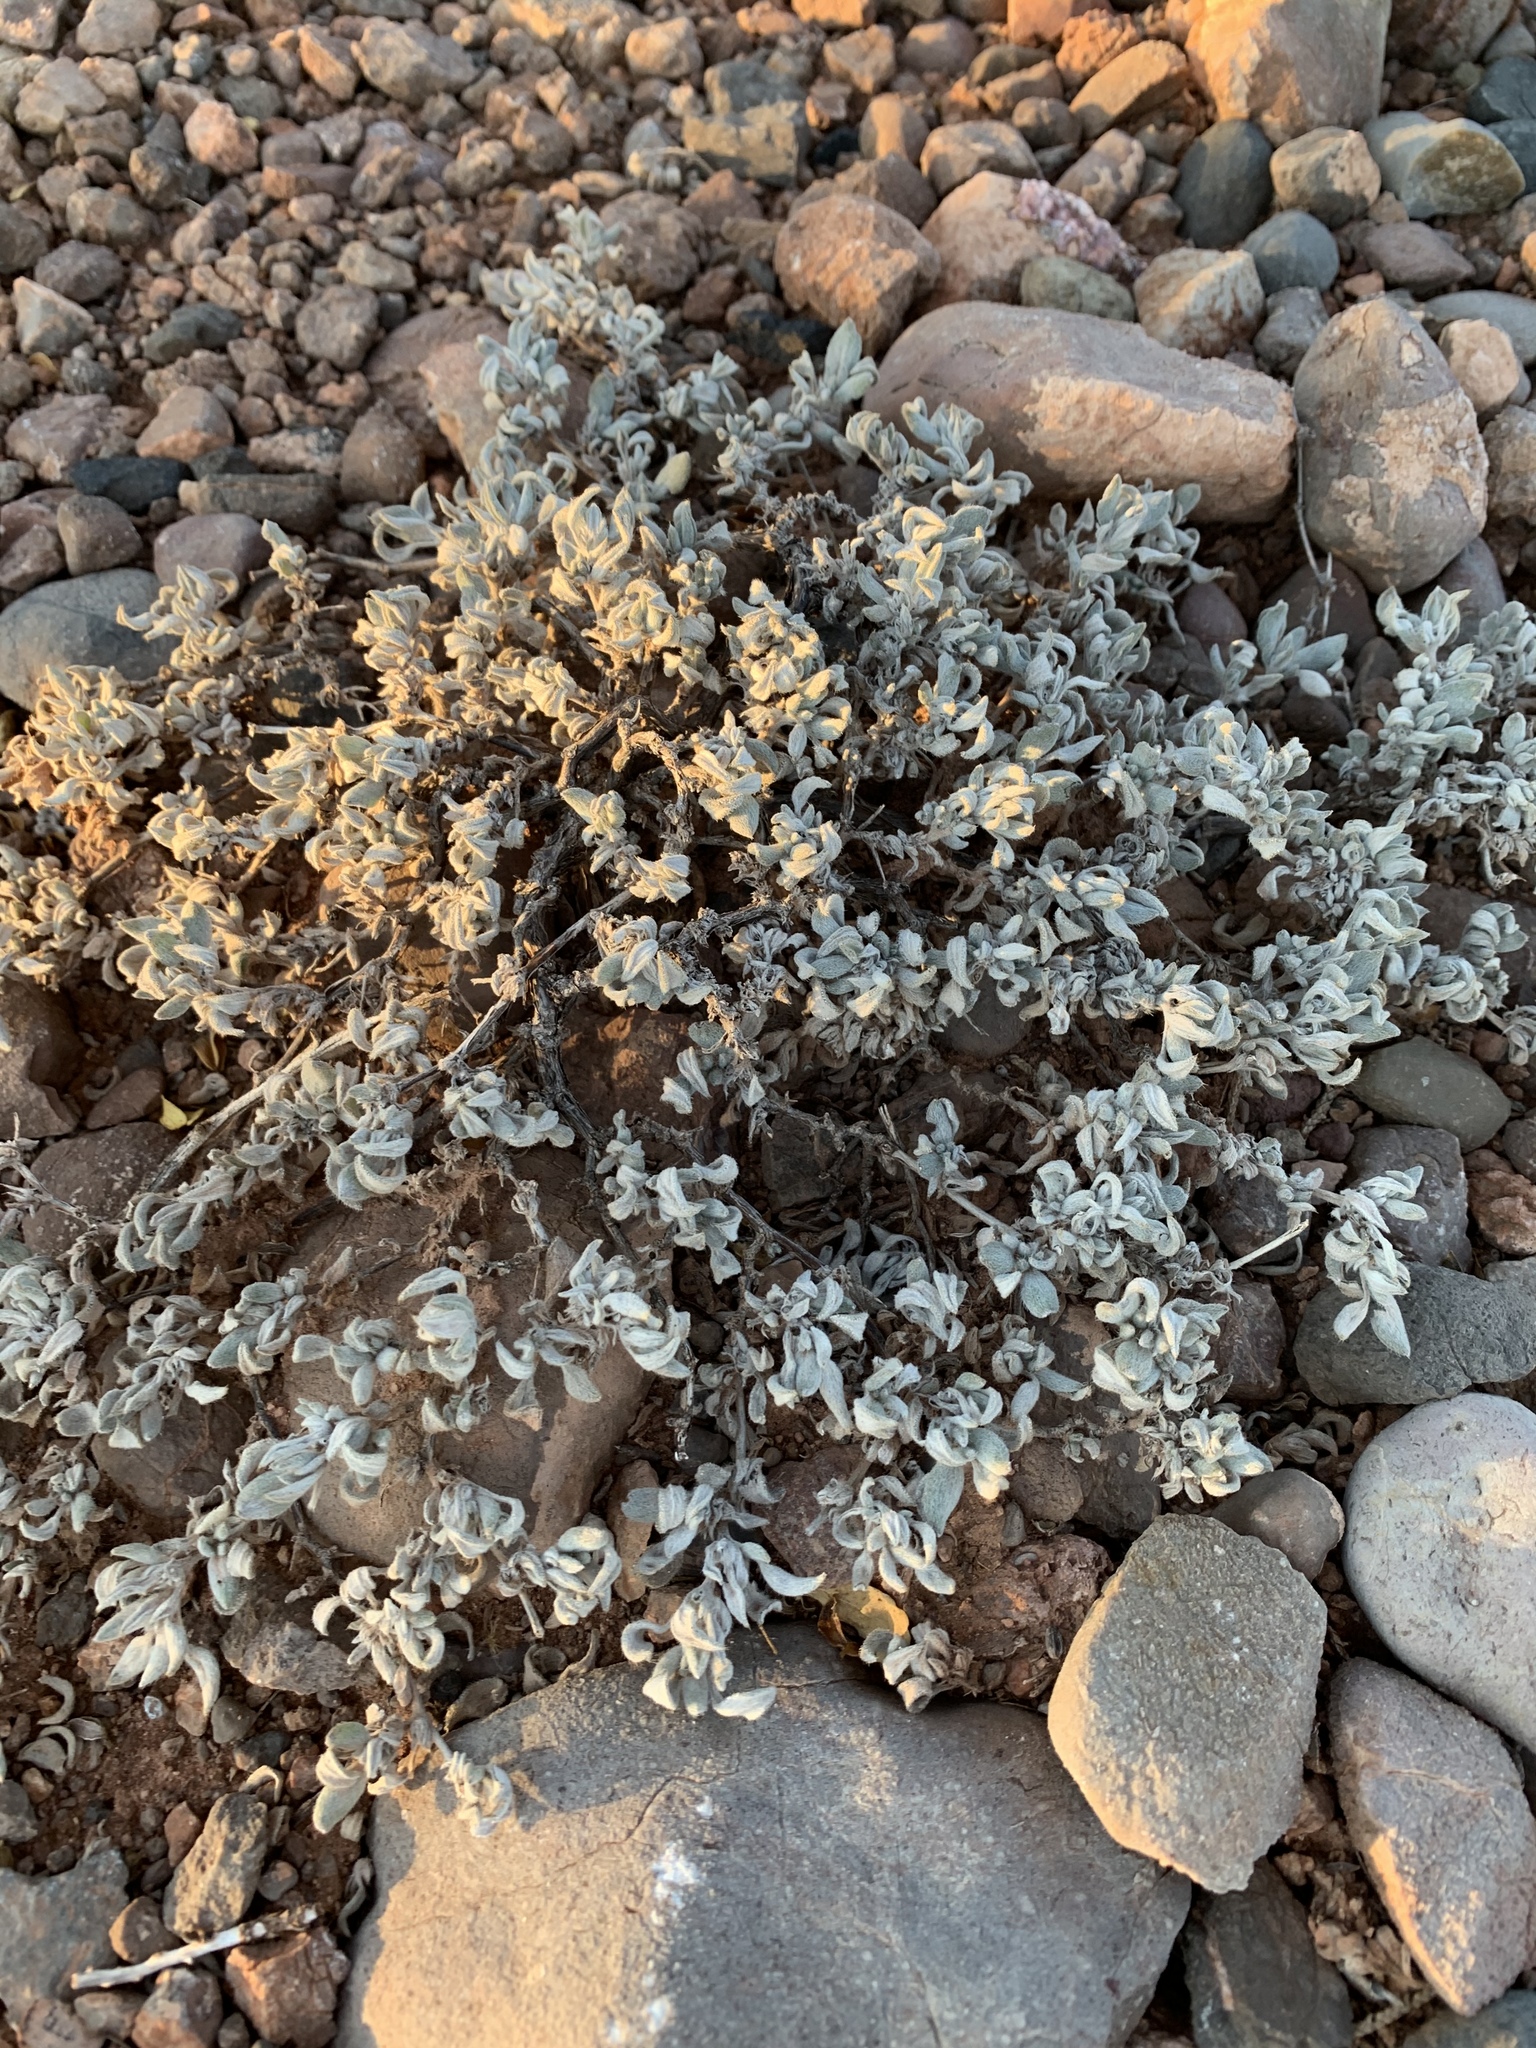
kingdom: Plantae
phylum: Tracheophyta
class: Magnoliopsida
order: Boraginales
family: Ehretiaceae
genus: Tiquilia
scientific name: Tiquilia canescens
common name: Hairy tiquilia
